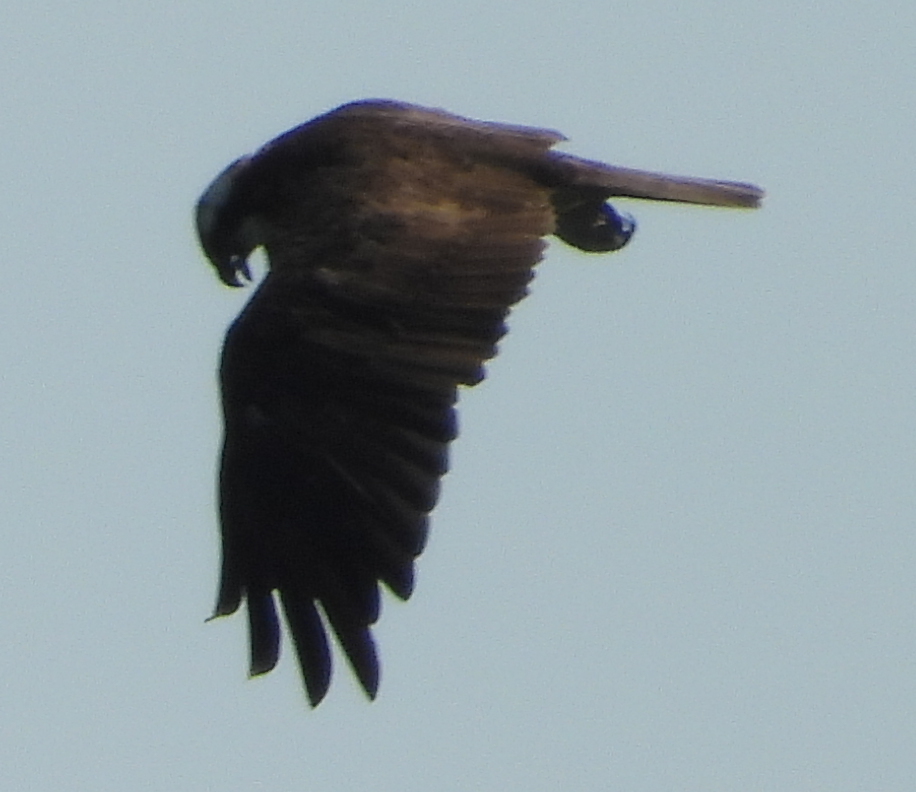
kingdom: Animalia
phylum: Chordata
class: Aves
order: Accipitriformes
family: Pandionidae
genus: Pandion
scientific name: Pandion haliaetus
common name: Osprey
